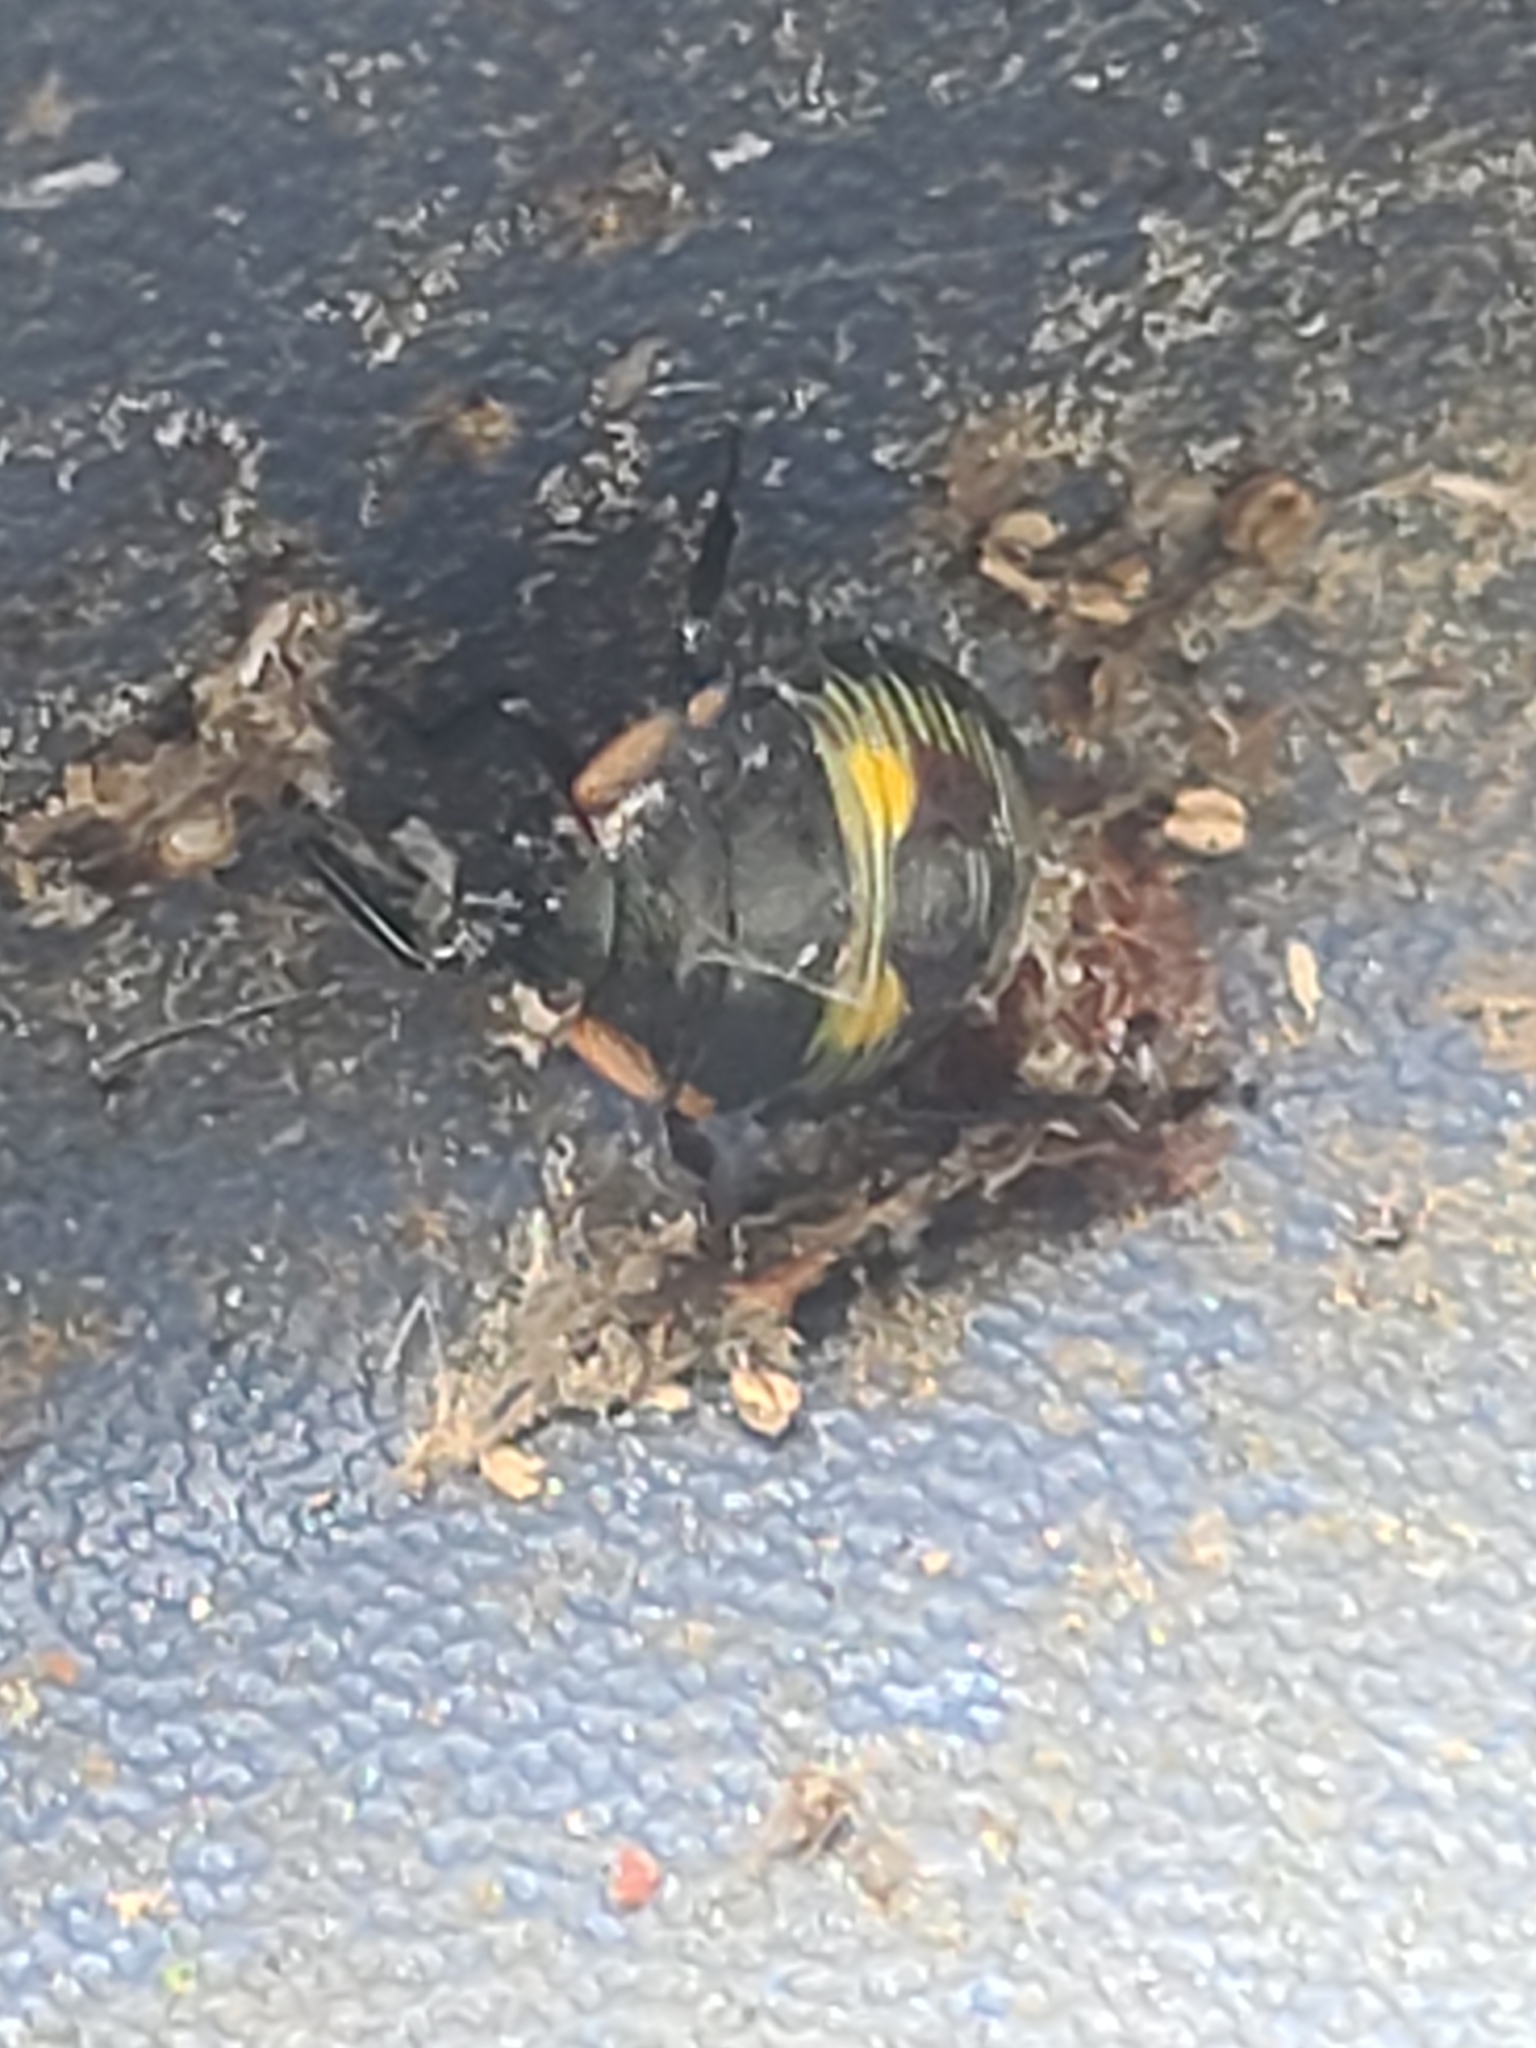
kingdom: Animalia
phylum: Arthropoda
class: Insecta
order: Hemiptera
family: Pentatomidae
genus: Chinavia
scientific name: Chinavia hilaris
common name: Green stink bug
